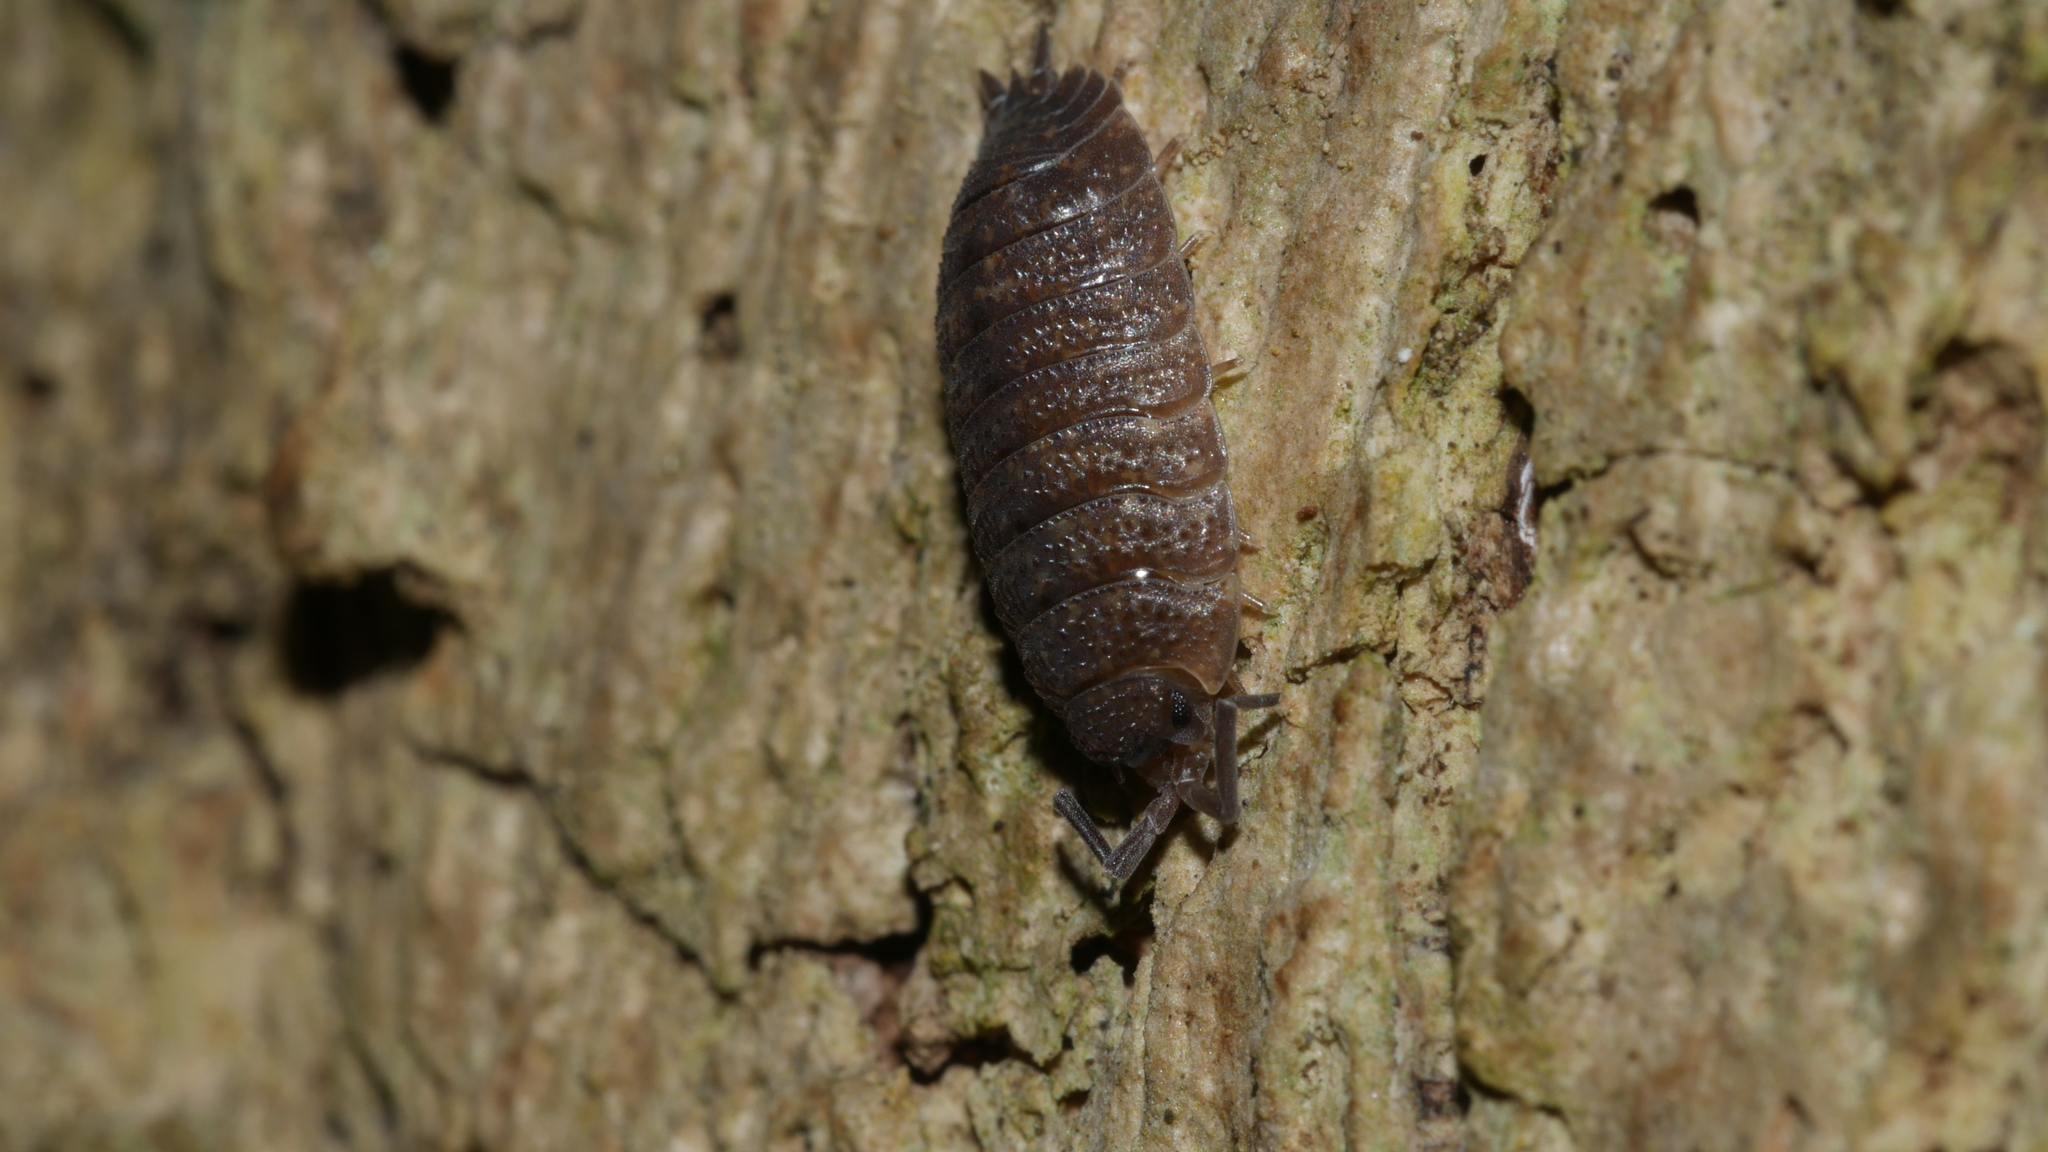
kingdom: Animalia
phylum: Arthropoda
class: Malacostraca
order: Isopoda
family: Porcellionidae
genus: Porcellio
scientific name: Porcellio scaber
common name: Common rough woodlouse
